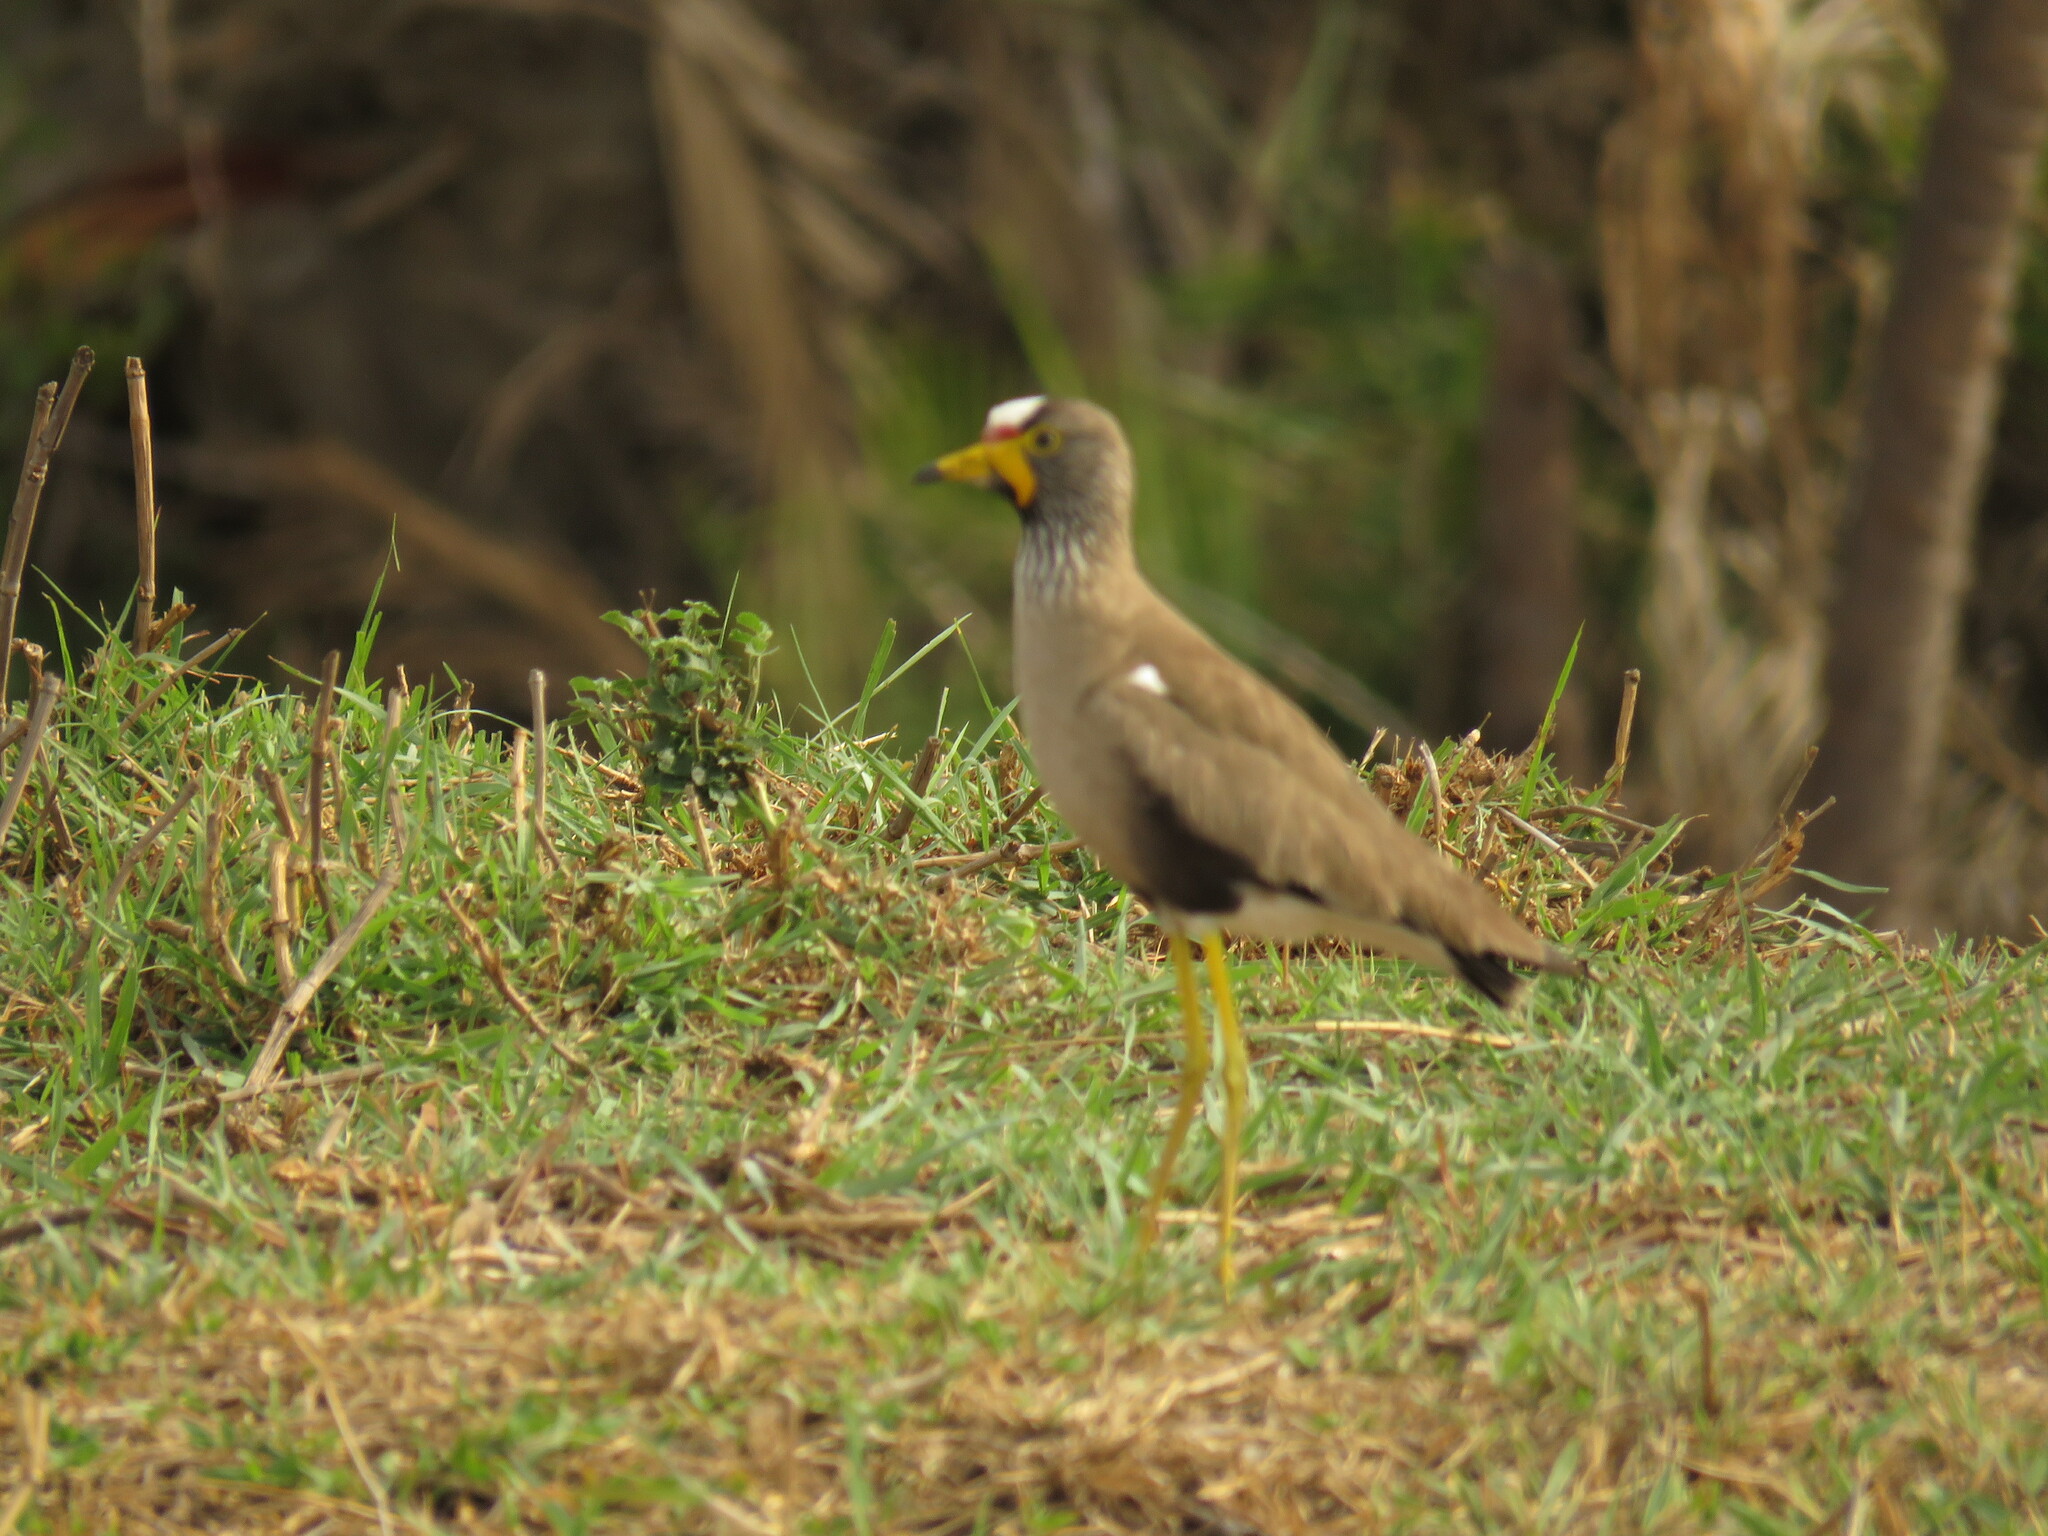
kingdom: Animalia
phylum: Chordata
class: Aves
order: Charadriiformes
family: Charadriidae
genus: Vanellus
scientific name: Vanellus senegallus
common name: African wattled lapwing
